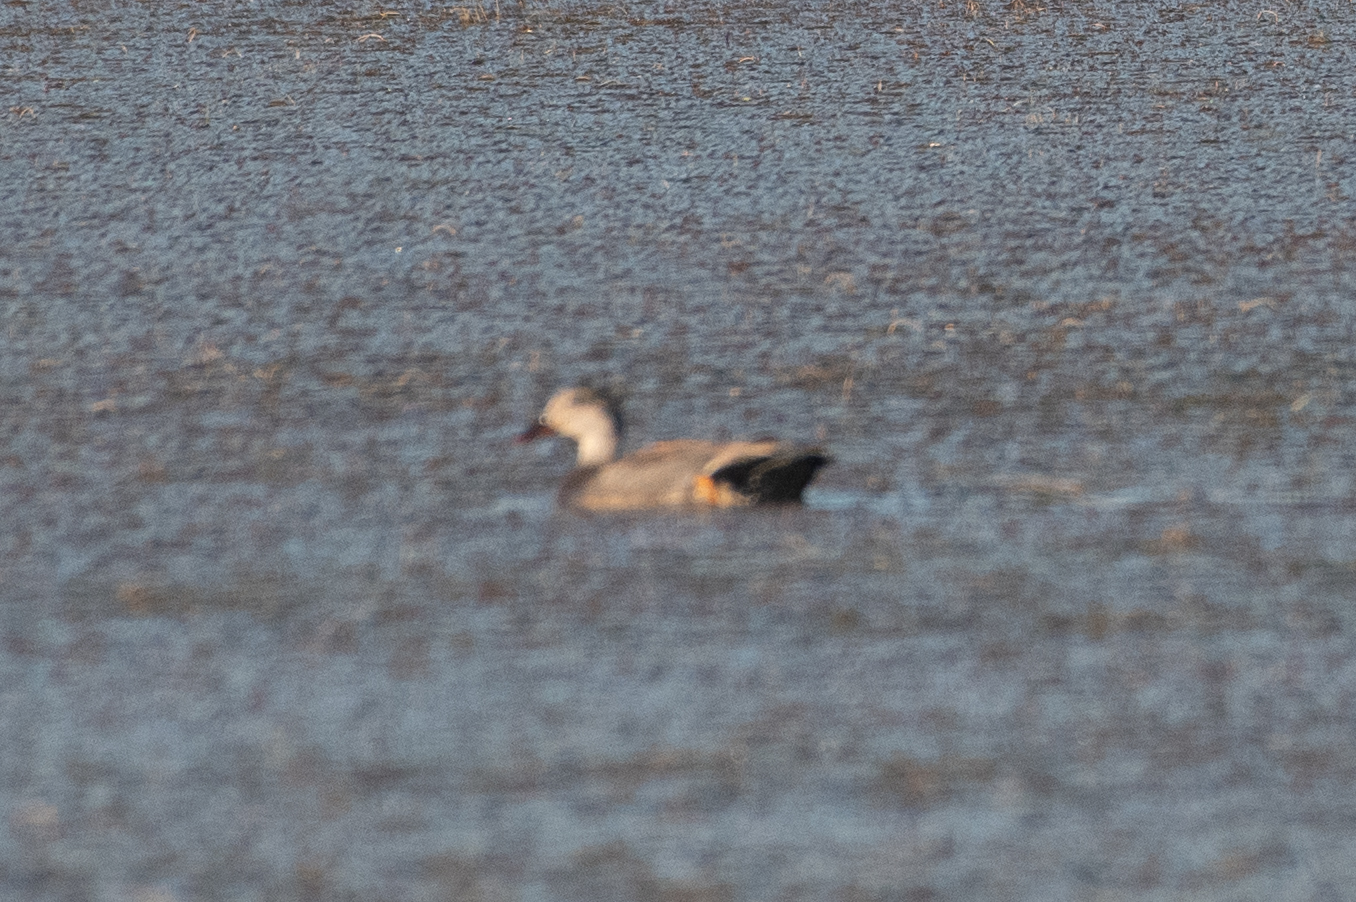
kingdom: Animalia
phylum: Chordata
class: Aves
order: Anseriformes
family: Anatidae
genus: Mareca
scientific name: Mareca strepera
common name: Gadwall
